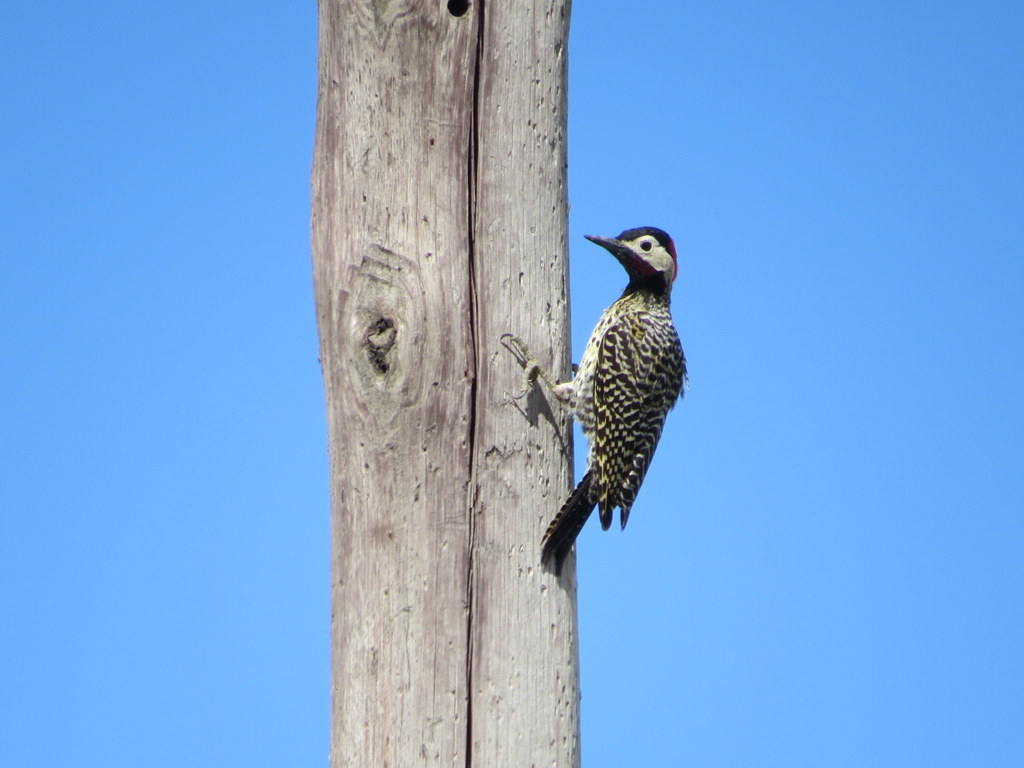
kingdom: Animalia
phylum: Chordata
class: Aves
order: Piciformes
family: Picidae
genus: Colaptes
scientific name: Colaptes melanochloros
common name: Green-barred woodpecker
